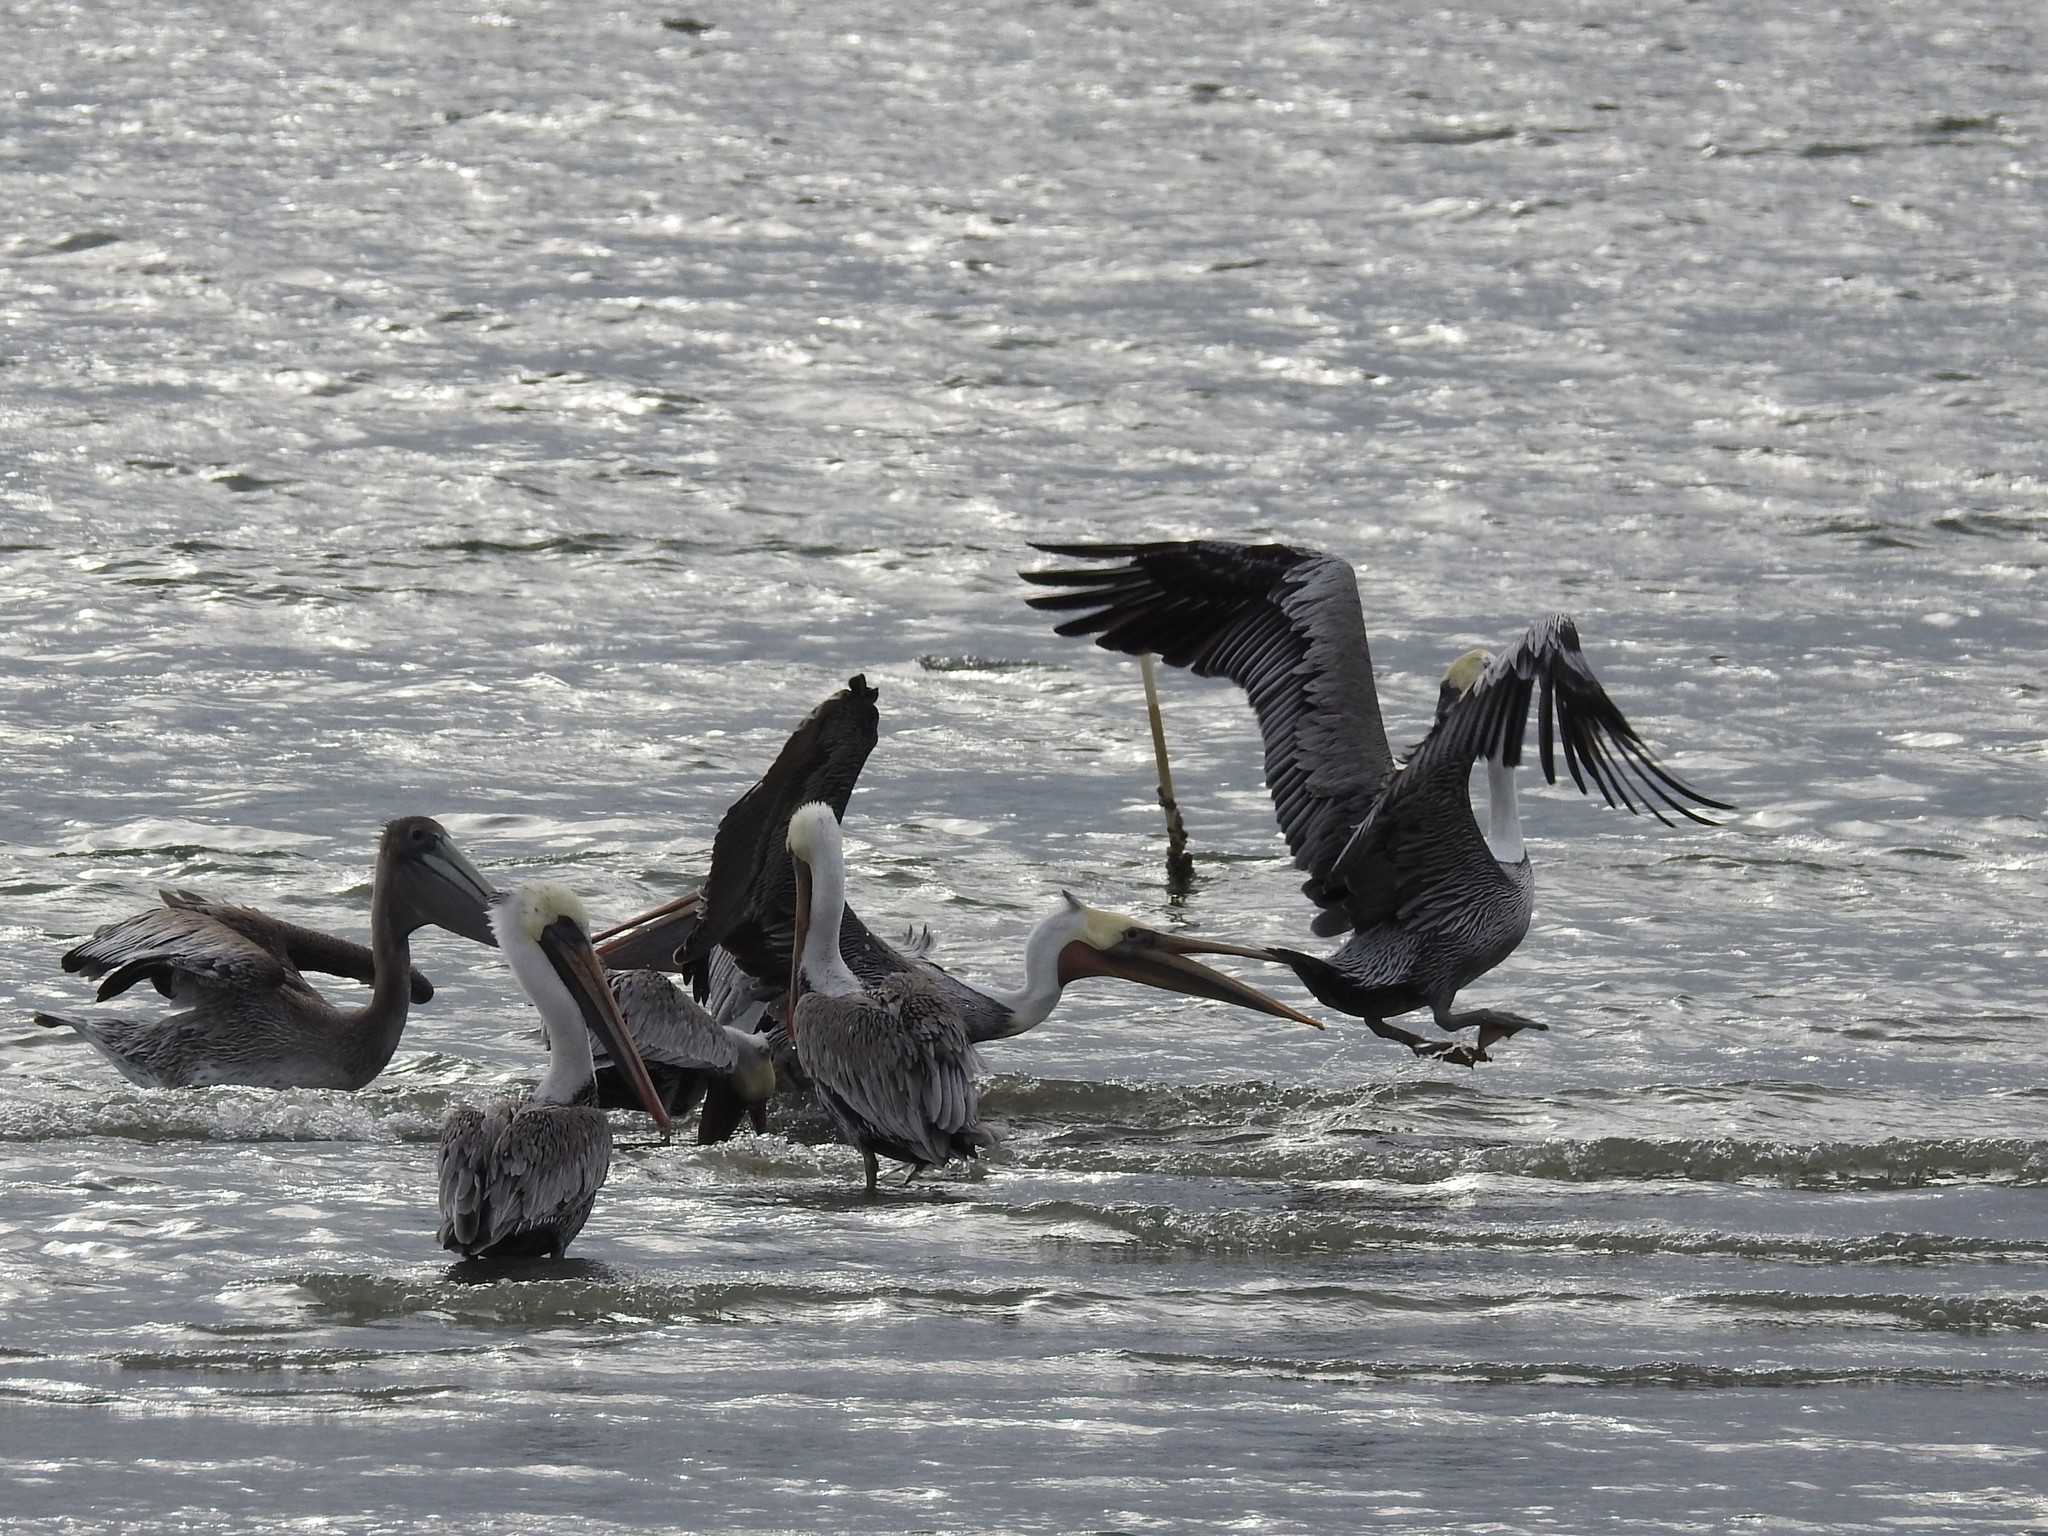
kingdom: Animalia
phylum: Chordata
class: Aves
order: Pelecaniformes
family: Pelecanidae
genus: Pelecanus
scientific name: Pelecanus occidentalis
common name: Brown pelican
